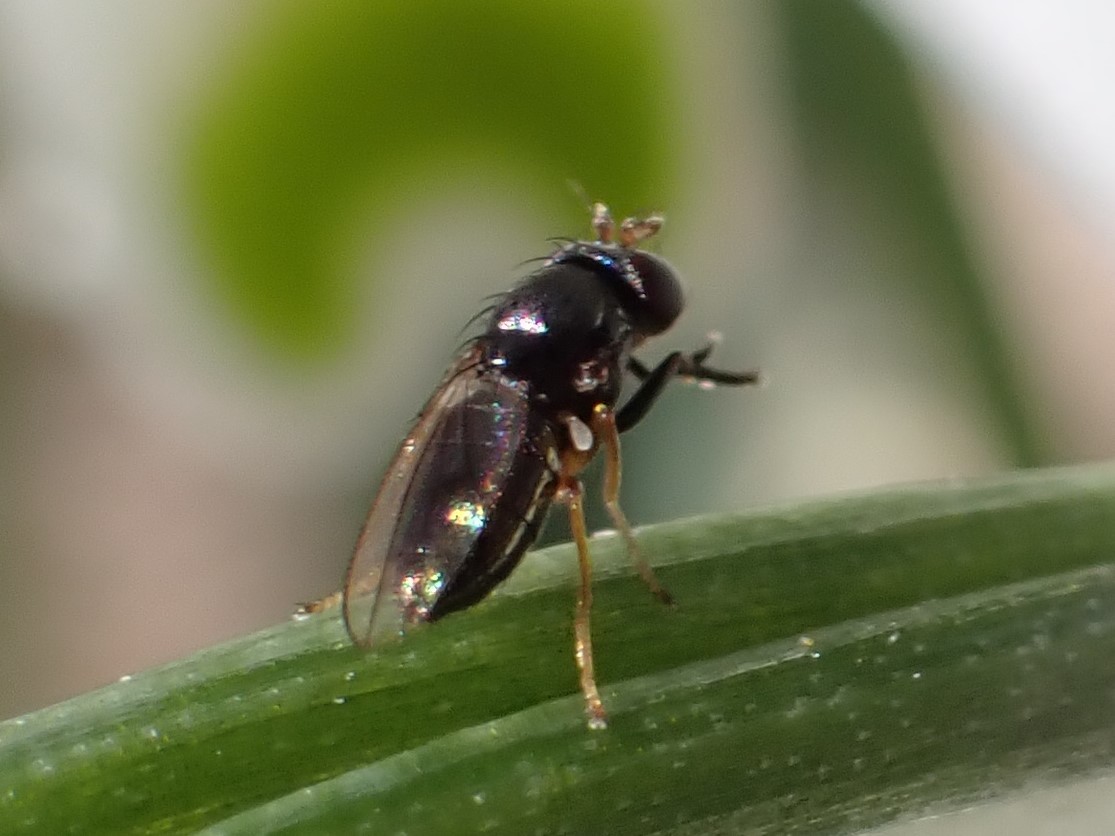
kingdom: Animalia
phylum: Arthropoda
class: Insecta
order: Diptera
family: Ephydridae
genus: Leptopsilopa
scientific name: Leptopsilopa atrimanus
